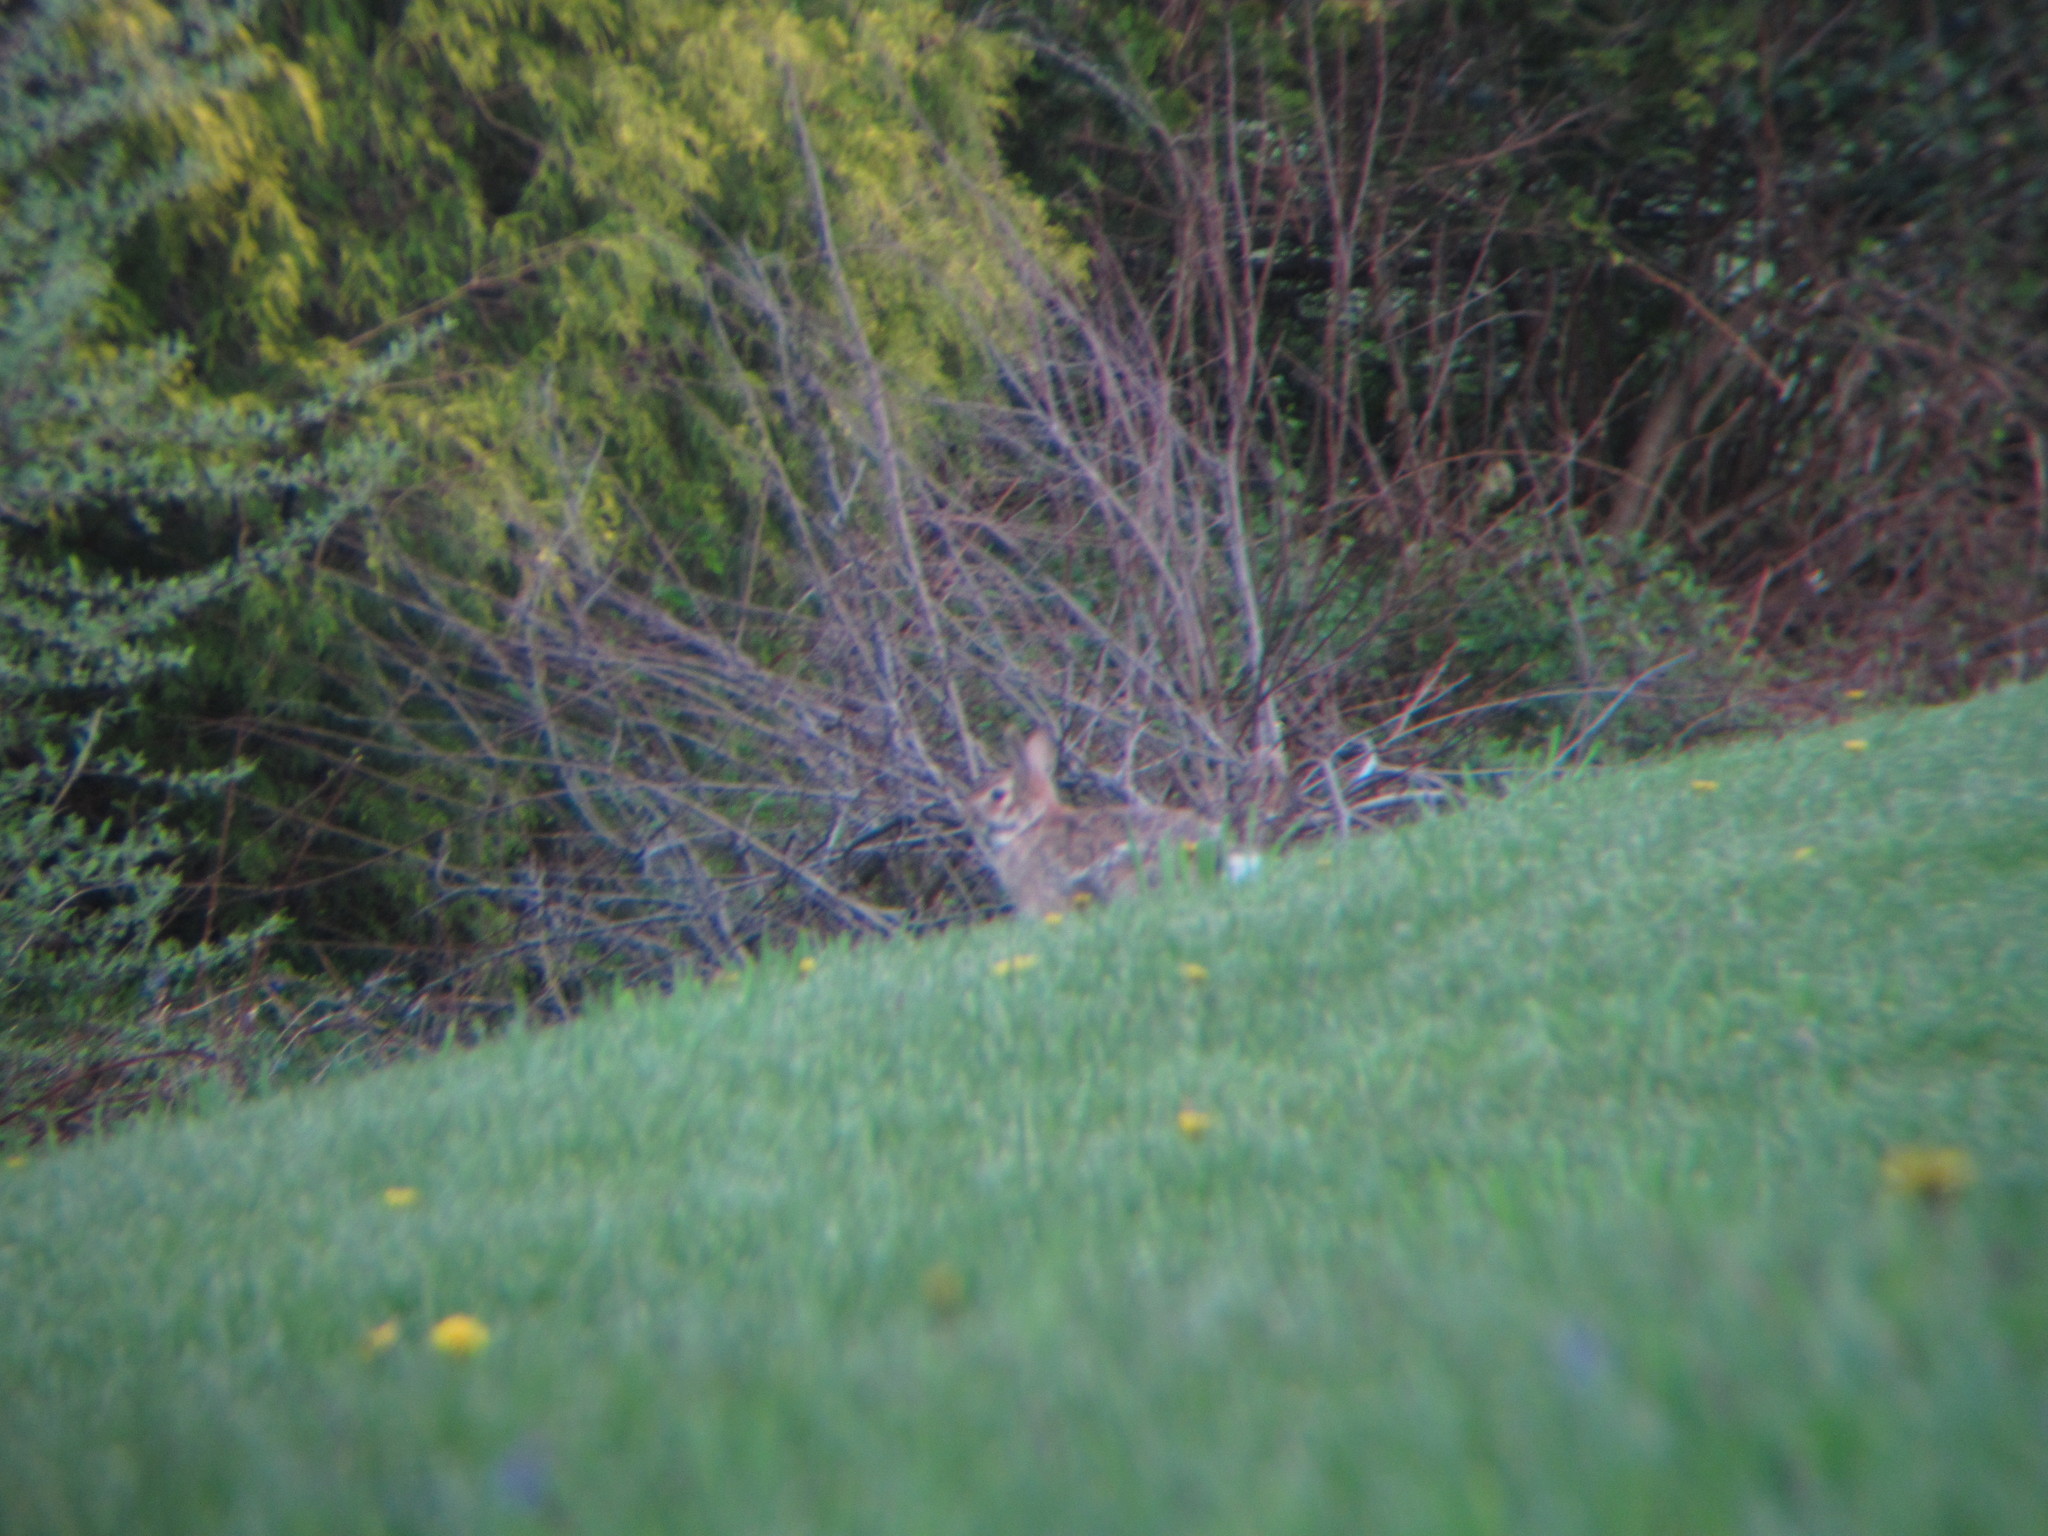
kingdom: Animalia
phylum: Chordata
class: Mammalia
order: Lagomorpha
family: Leporidae
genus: Sylvilagus
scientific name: Sylvilagus floridanus
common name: Eastern cottontail
